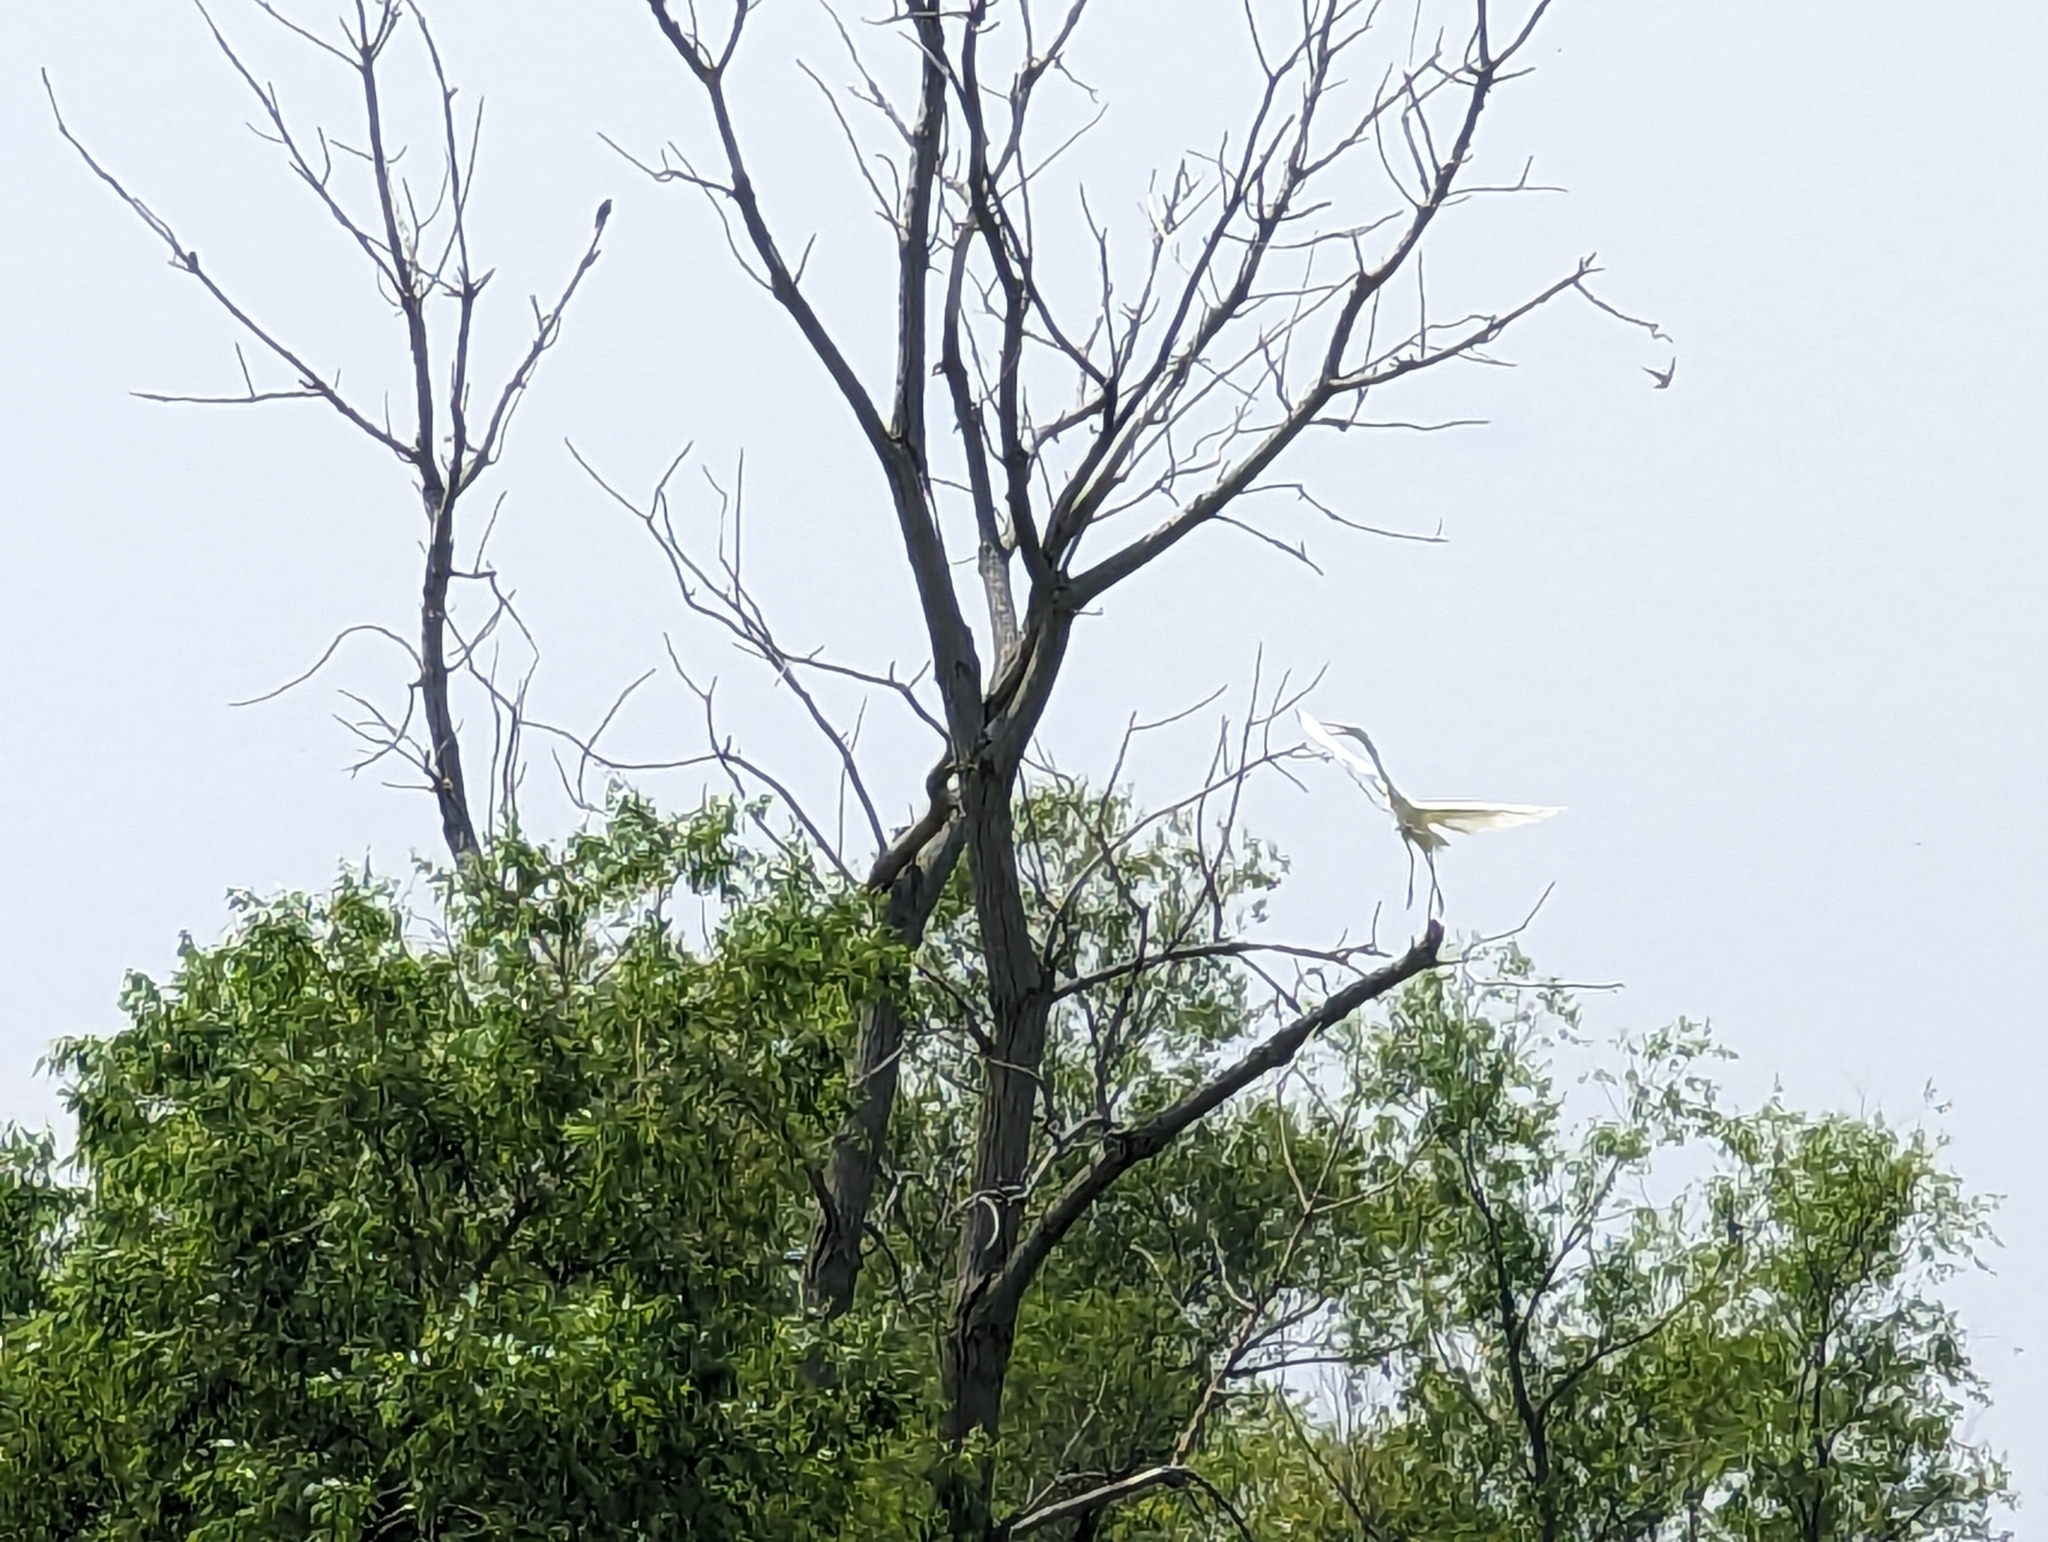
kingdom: Animalia
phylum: Chordata
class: Aves
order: Pelecaniformes
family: Ardeidae
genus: Ardea
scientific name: Ardea alba
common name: Great egret
